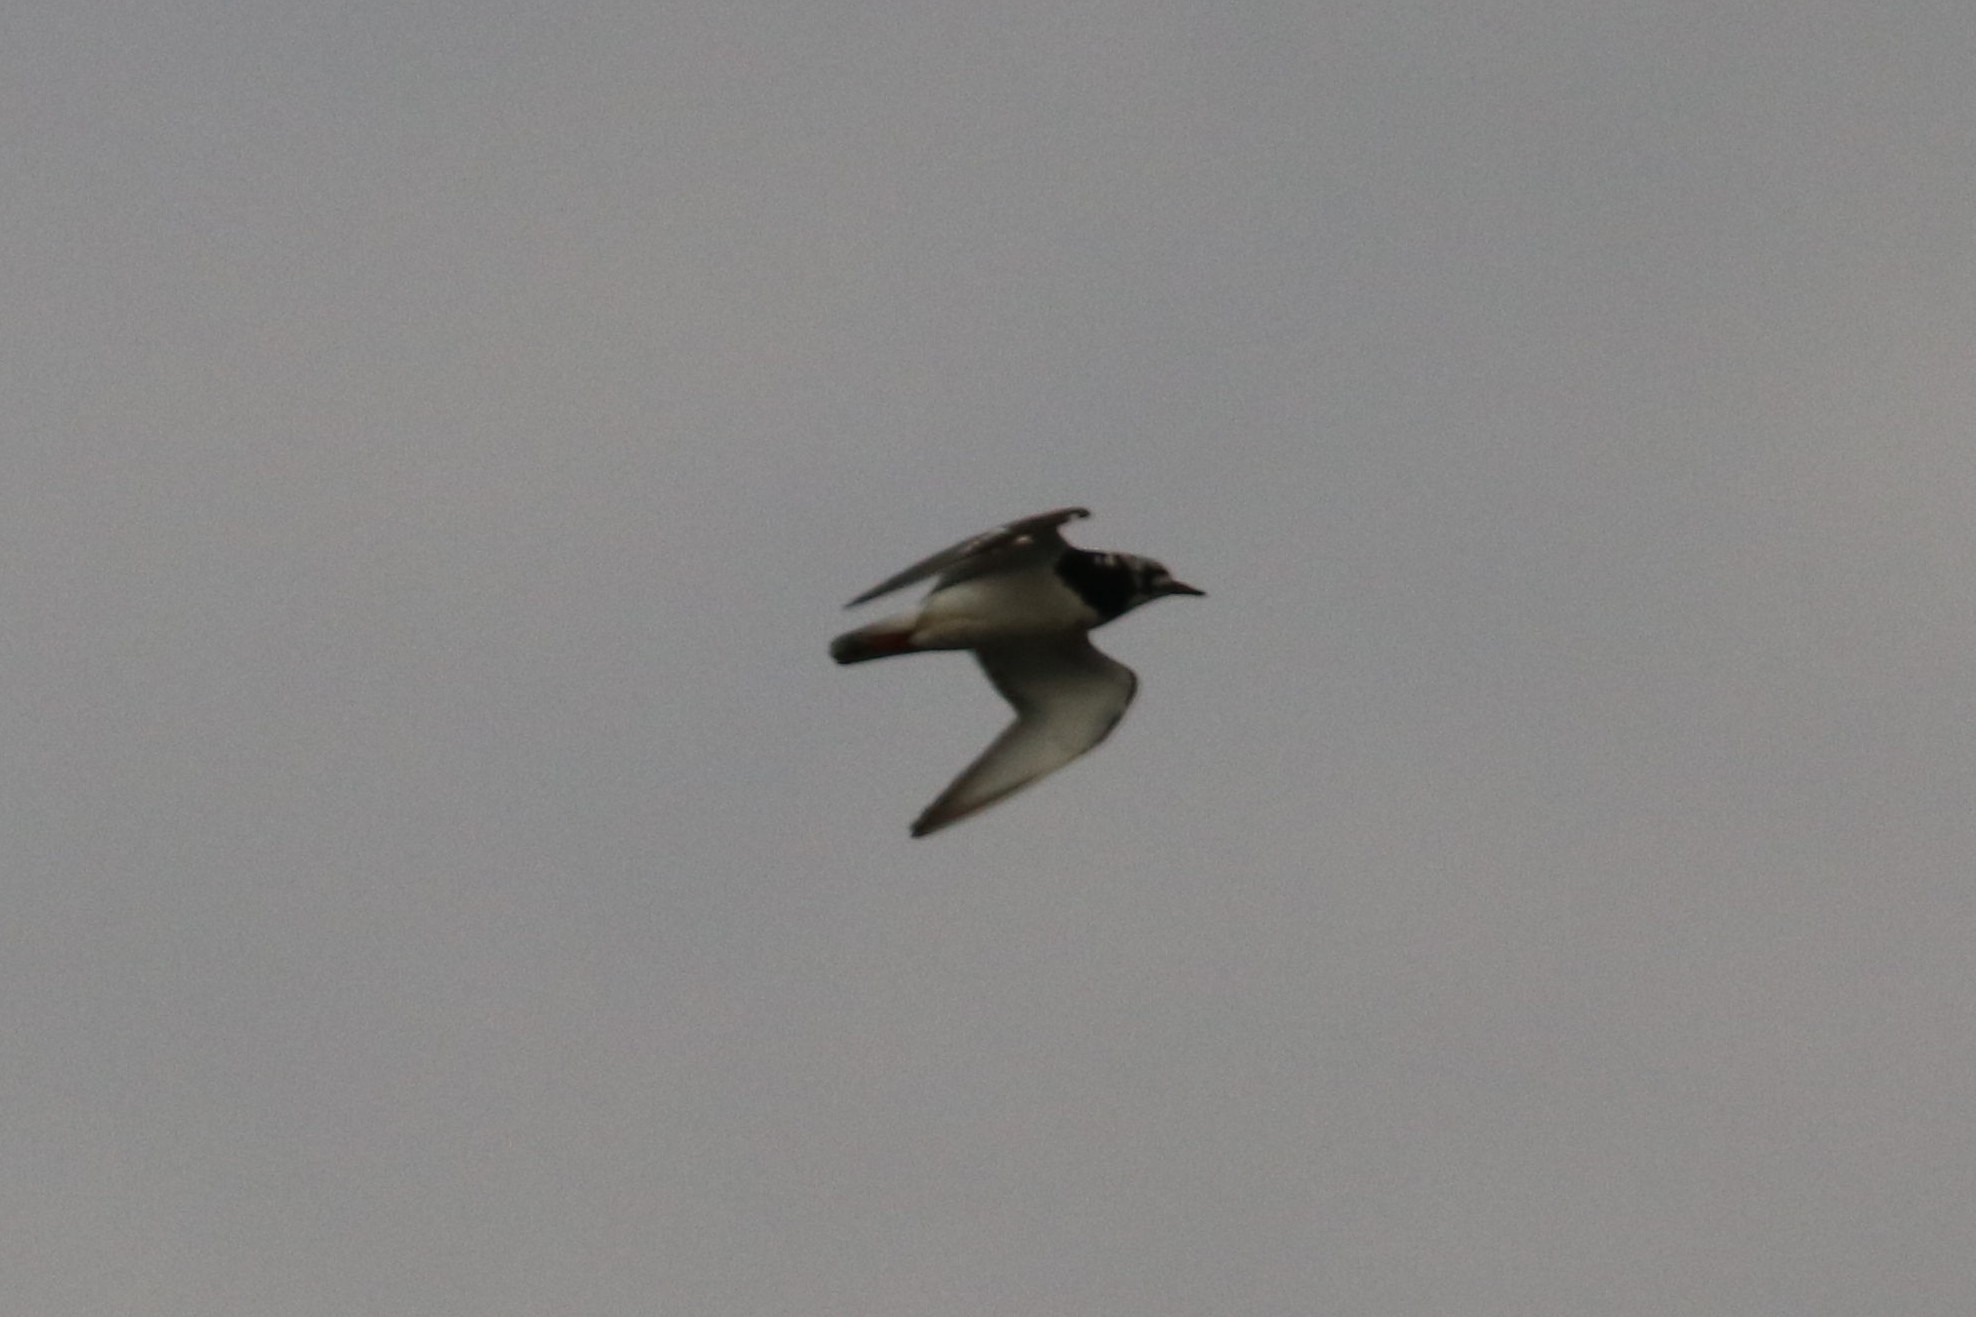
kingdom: Animalia
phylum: Chordata
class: Aves
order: Charadriiformes
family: Scolopacidae
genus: Arenaria
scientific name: Arenaria interpres
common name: Ruddy turnstone
